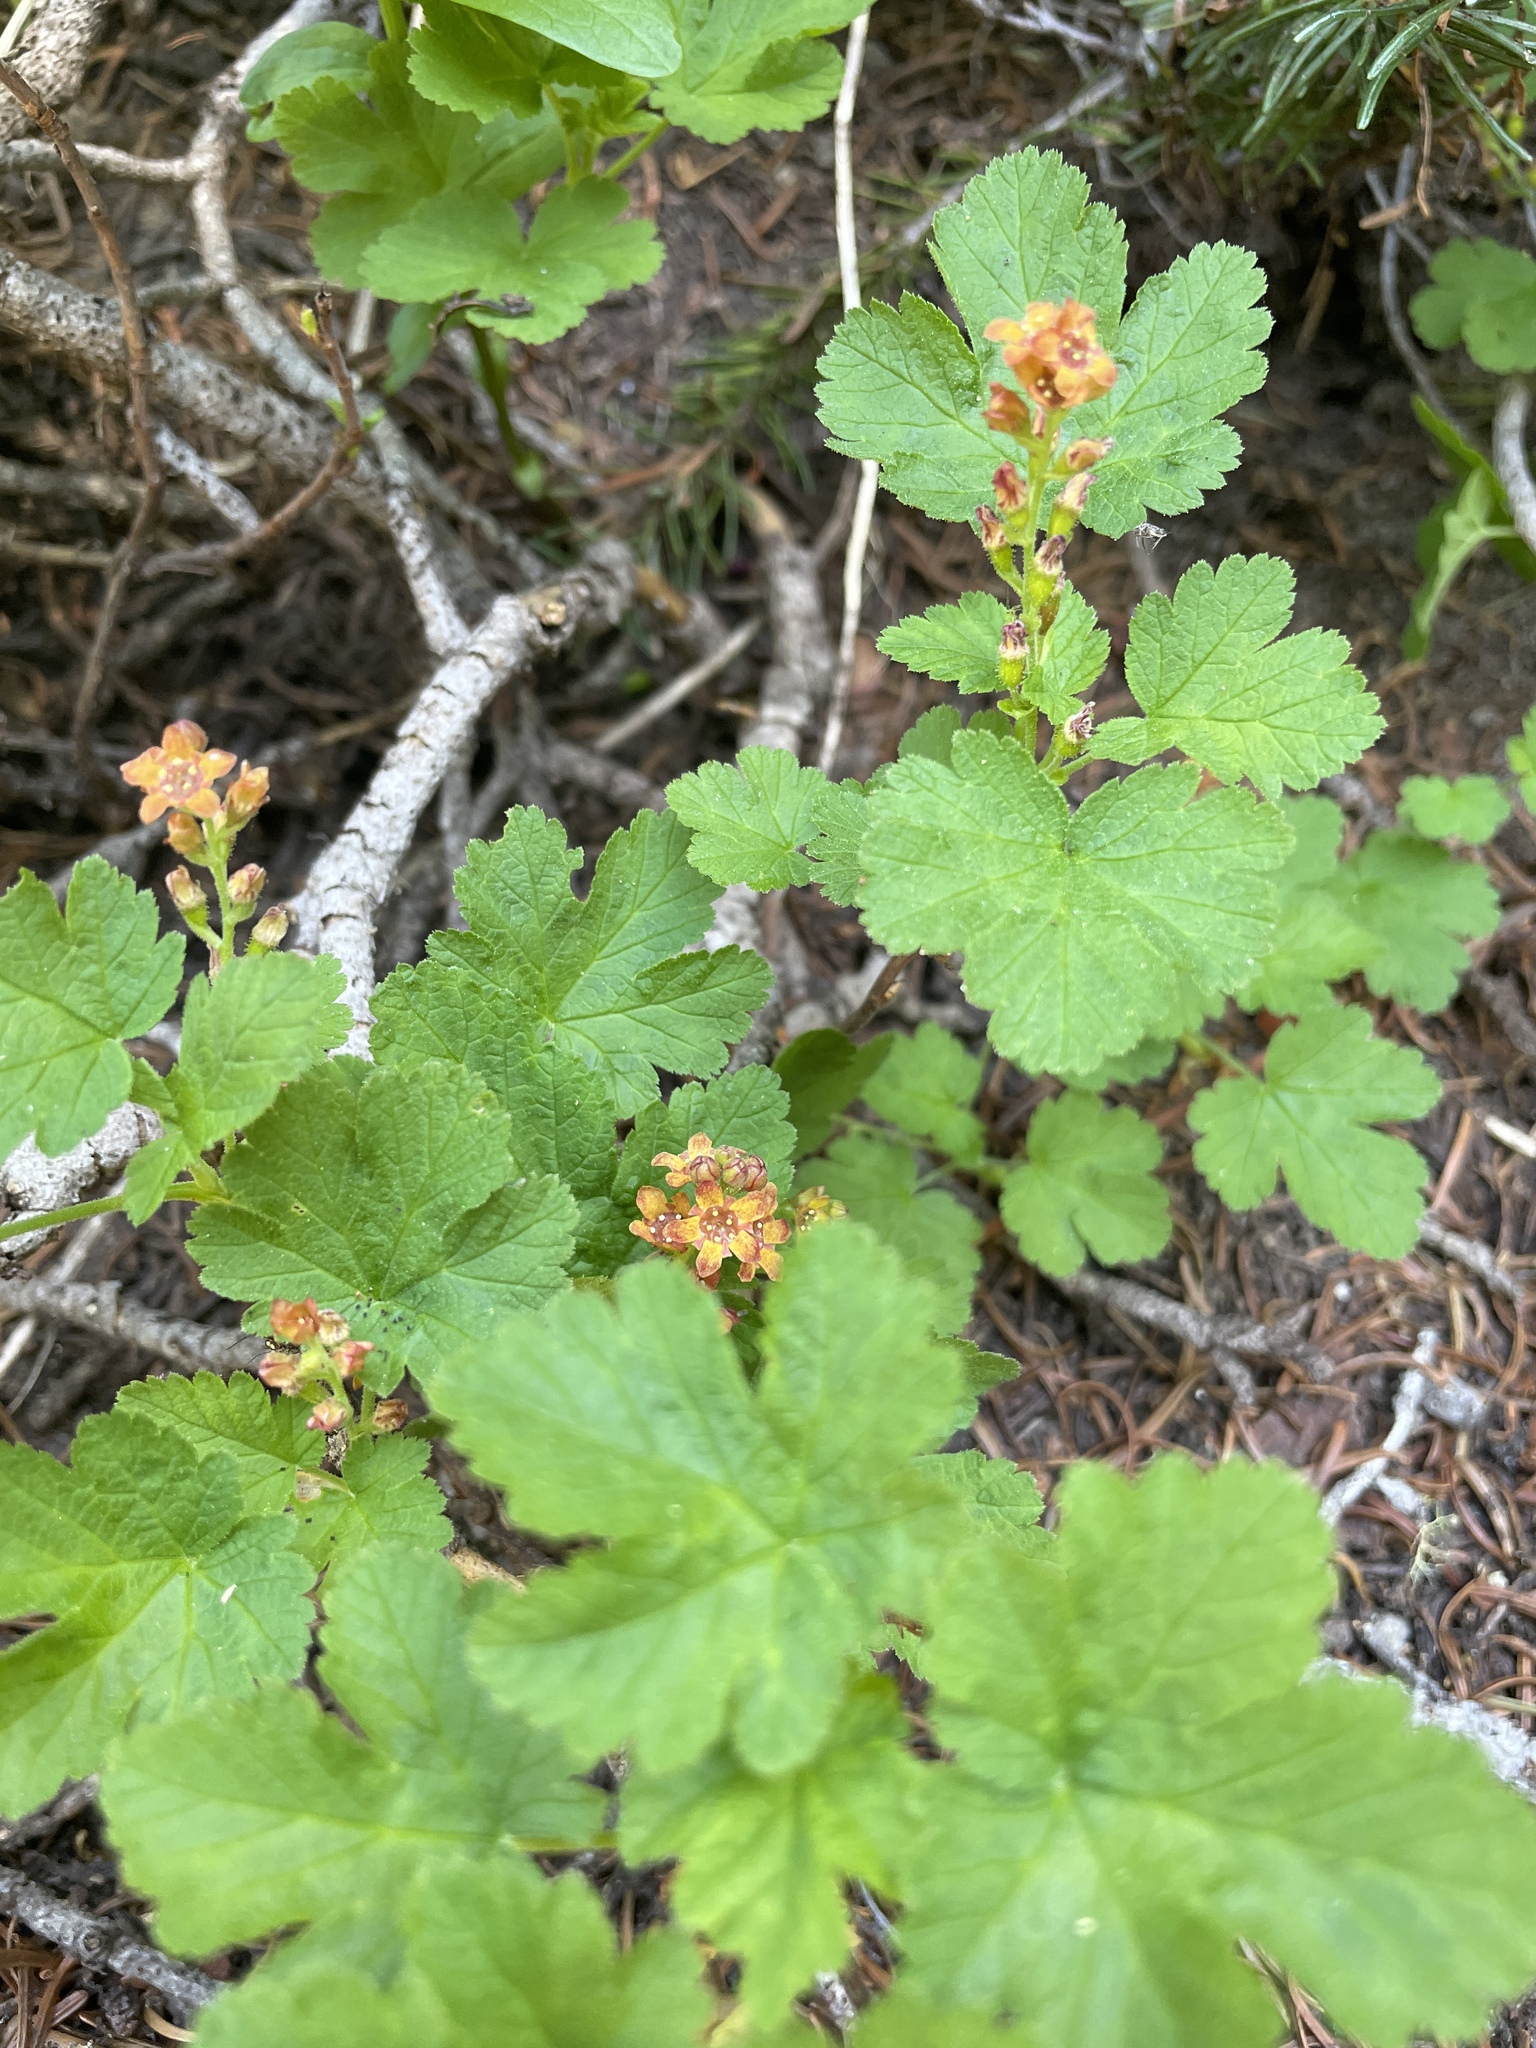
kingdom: Plantae
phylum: Tracheophyta
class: Magnoliopsida
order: Saxifragales
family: Grossulariaceae
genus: Ribes
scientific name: Ribes erythrocarpum
